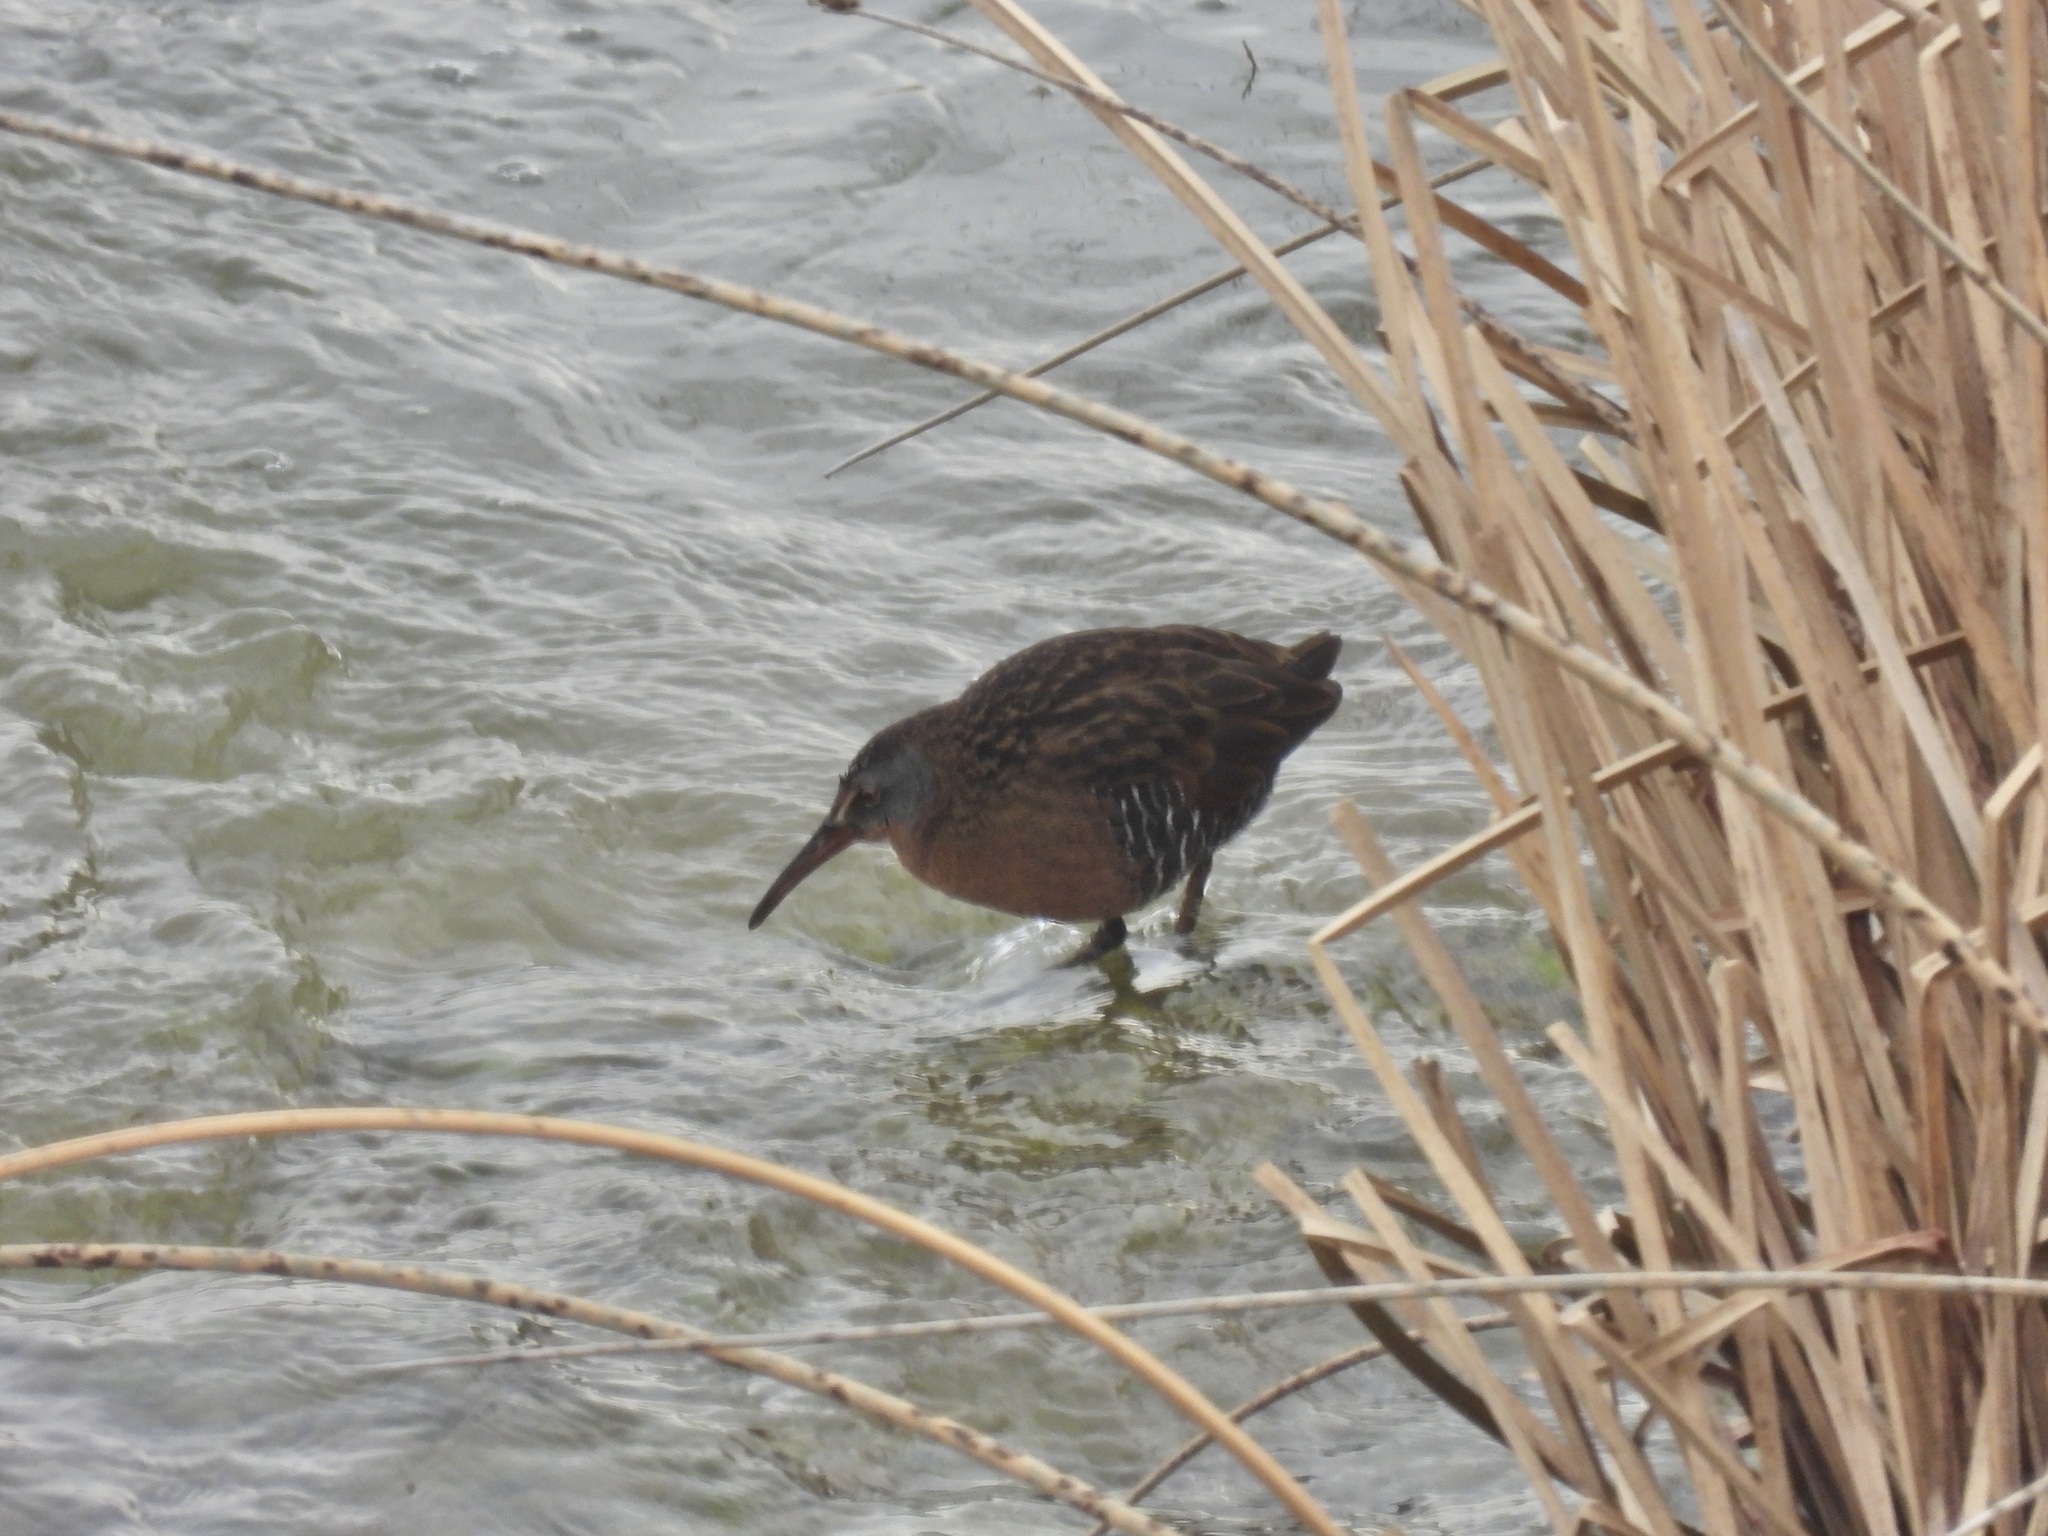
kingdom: Animalia
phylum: Chordata
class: Aves
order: Gruiformes
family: Rallidae
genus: Rallus
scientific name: Rallus limicola
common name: Virginia rail
